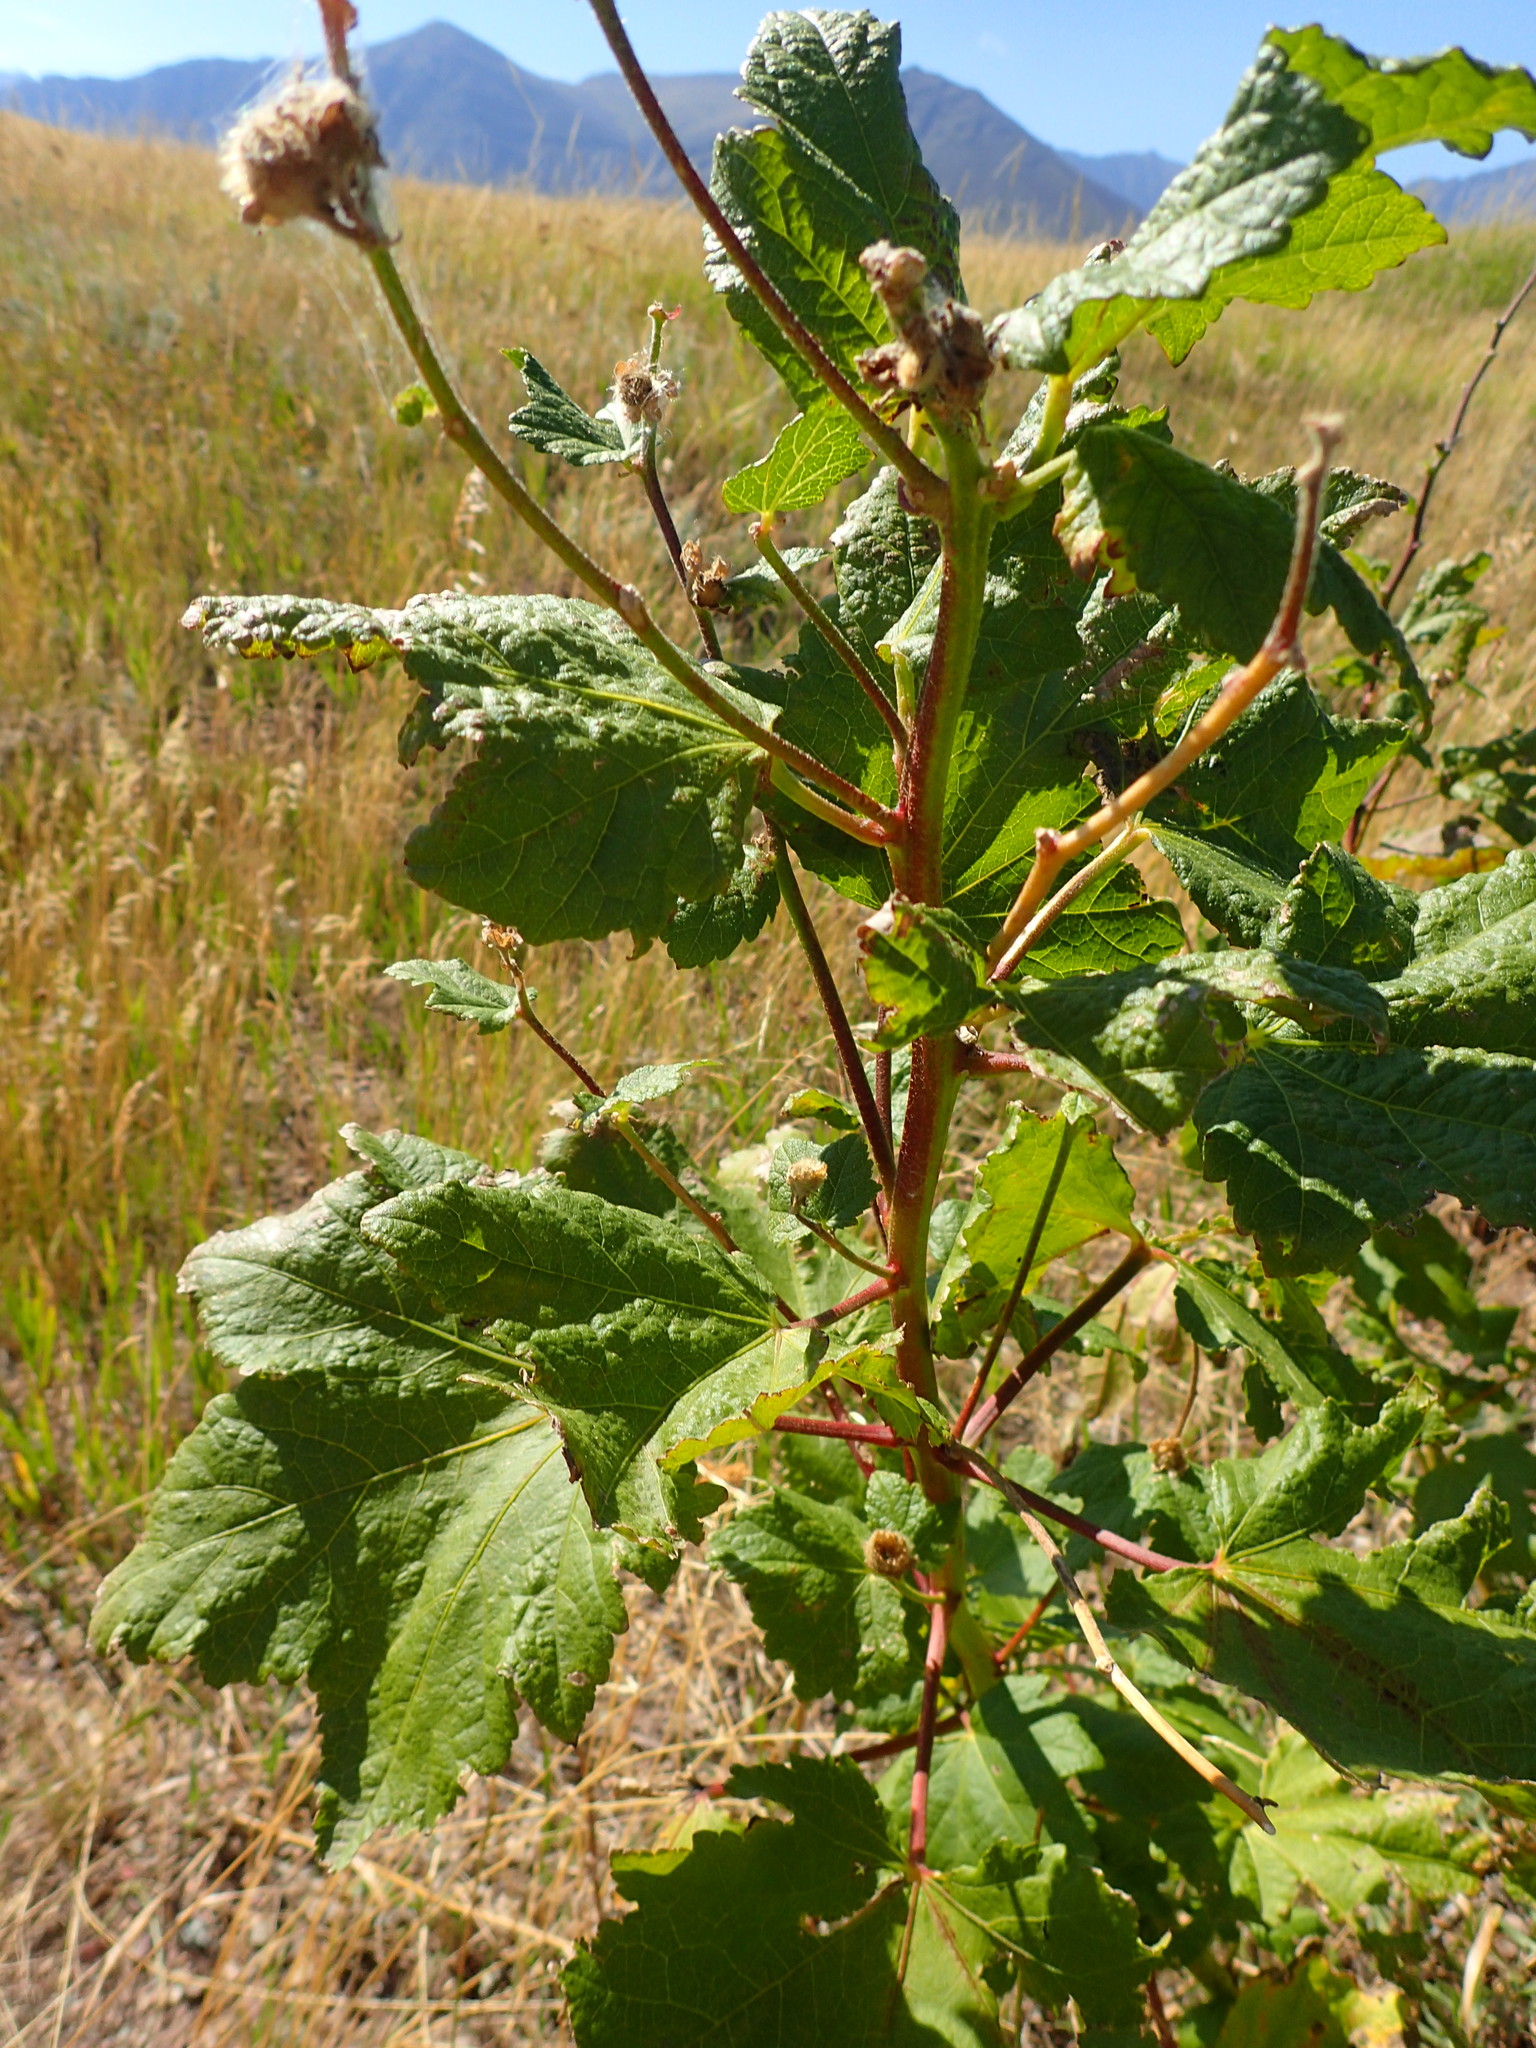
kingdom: Plantae
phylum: Tracheophyta
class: Magnoliopsida
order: Malvales
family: Malvaceae
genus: Iliamna
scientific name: Iliamna rivularis
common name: Wild hollyhock
